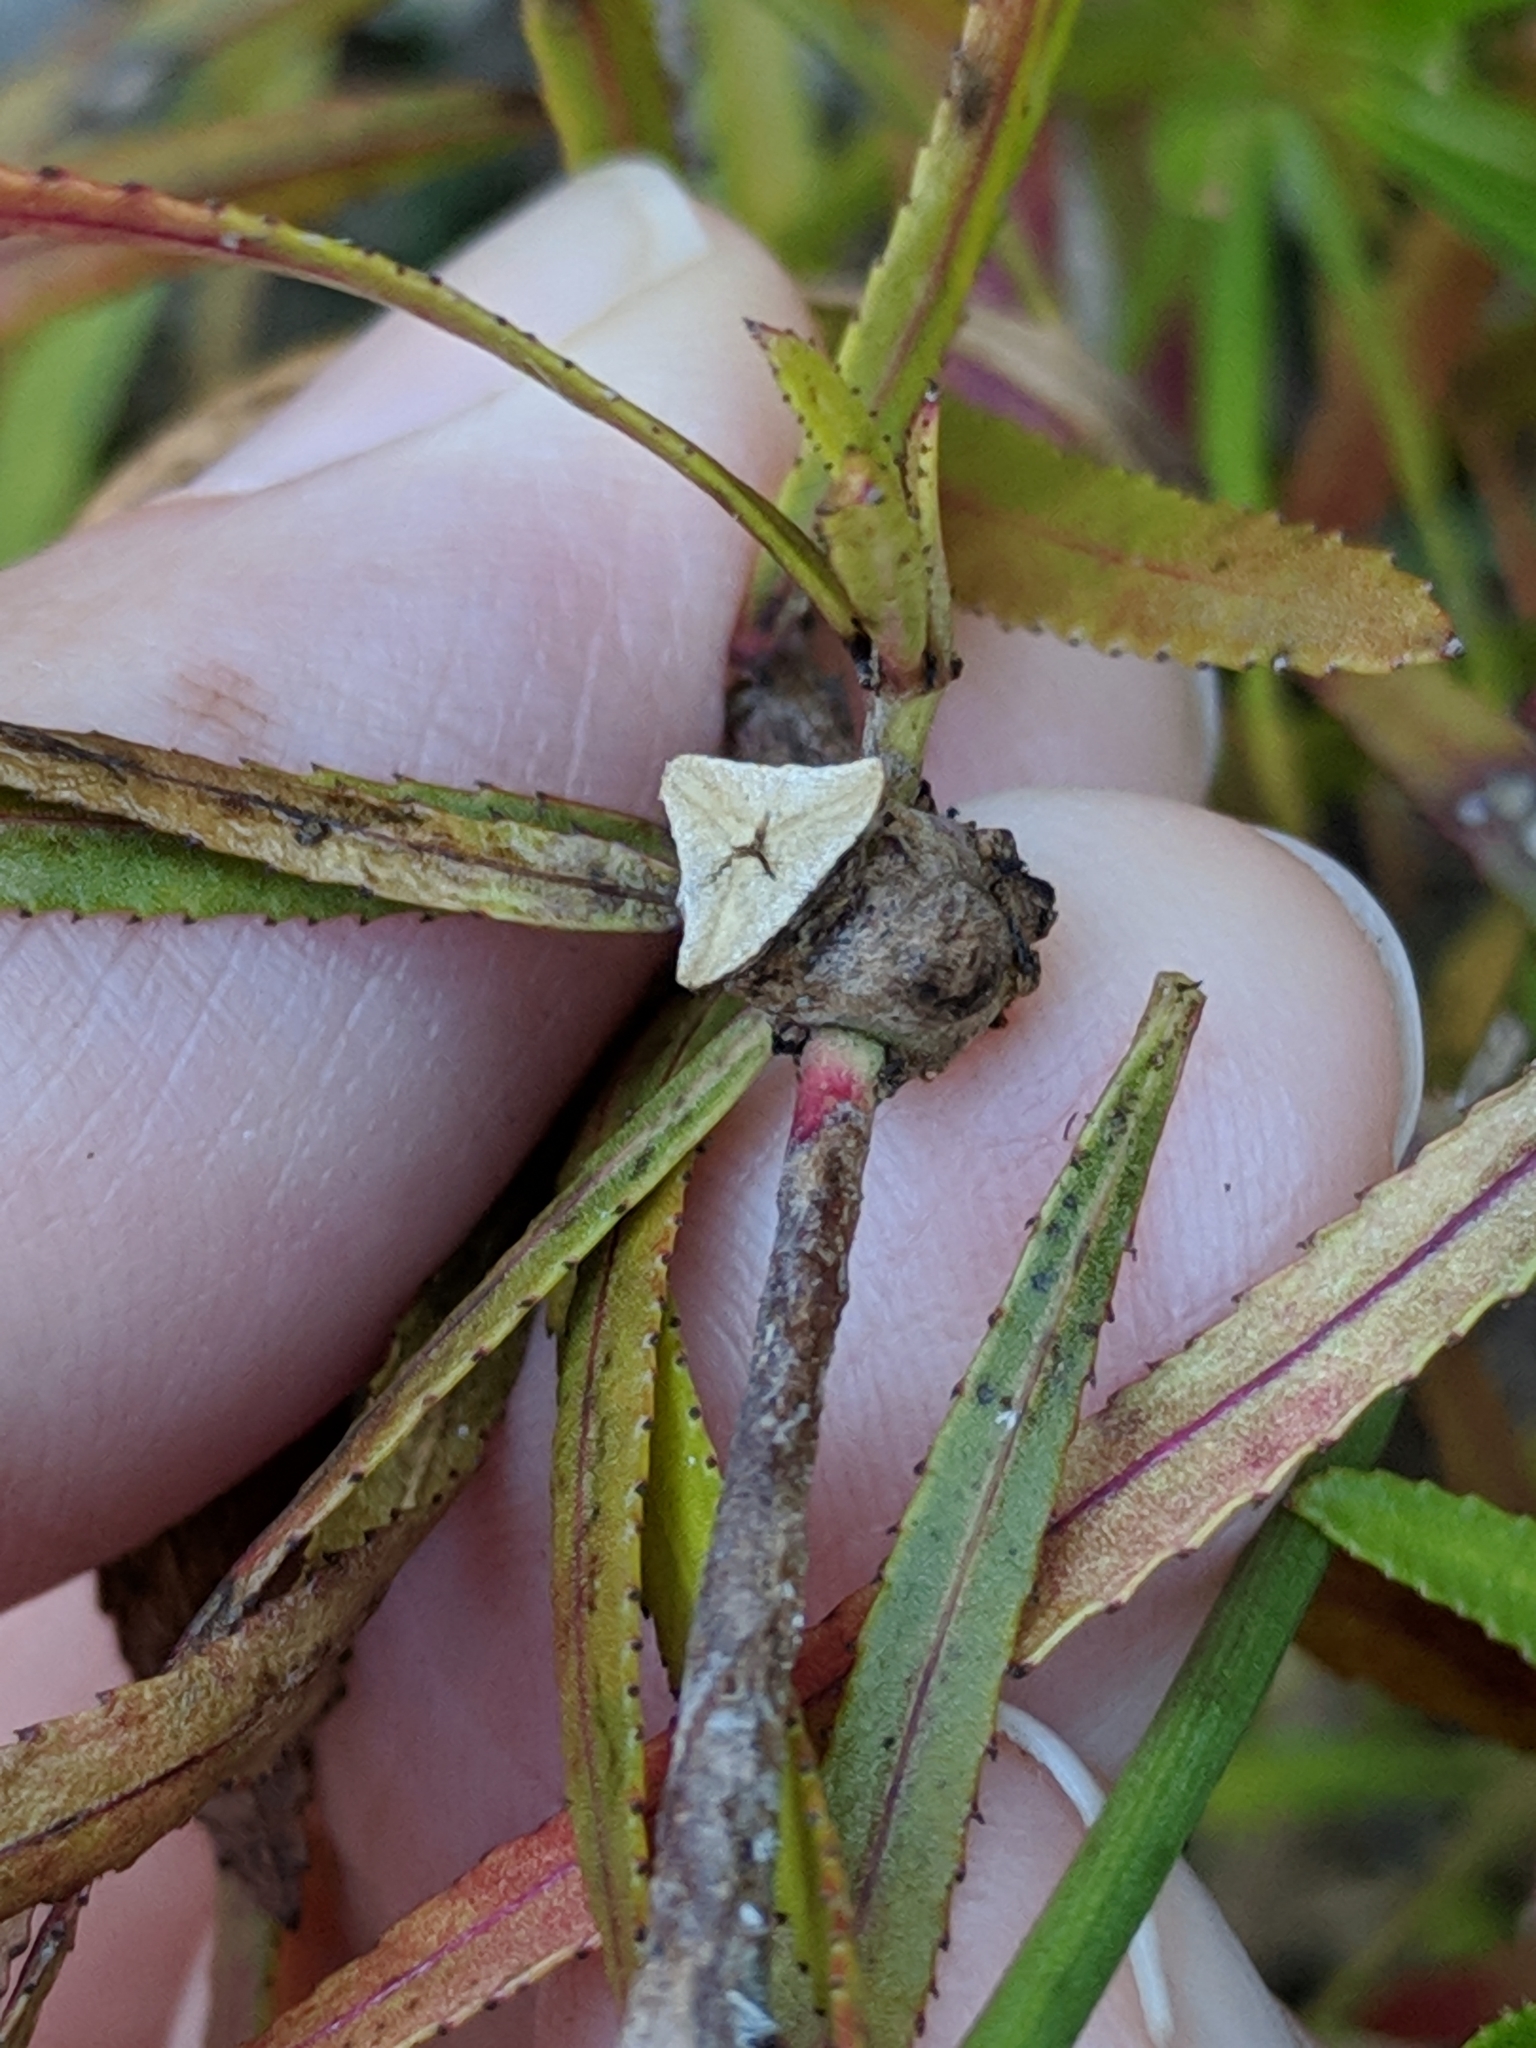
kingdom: Plantae
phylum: Tracheophyta
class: Magnoliopsida
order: Malpighiales
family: Euphorbiaceae
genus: Stillingia
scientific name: Stillingia texana
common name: Texas stillingia
